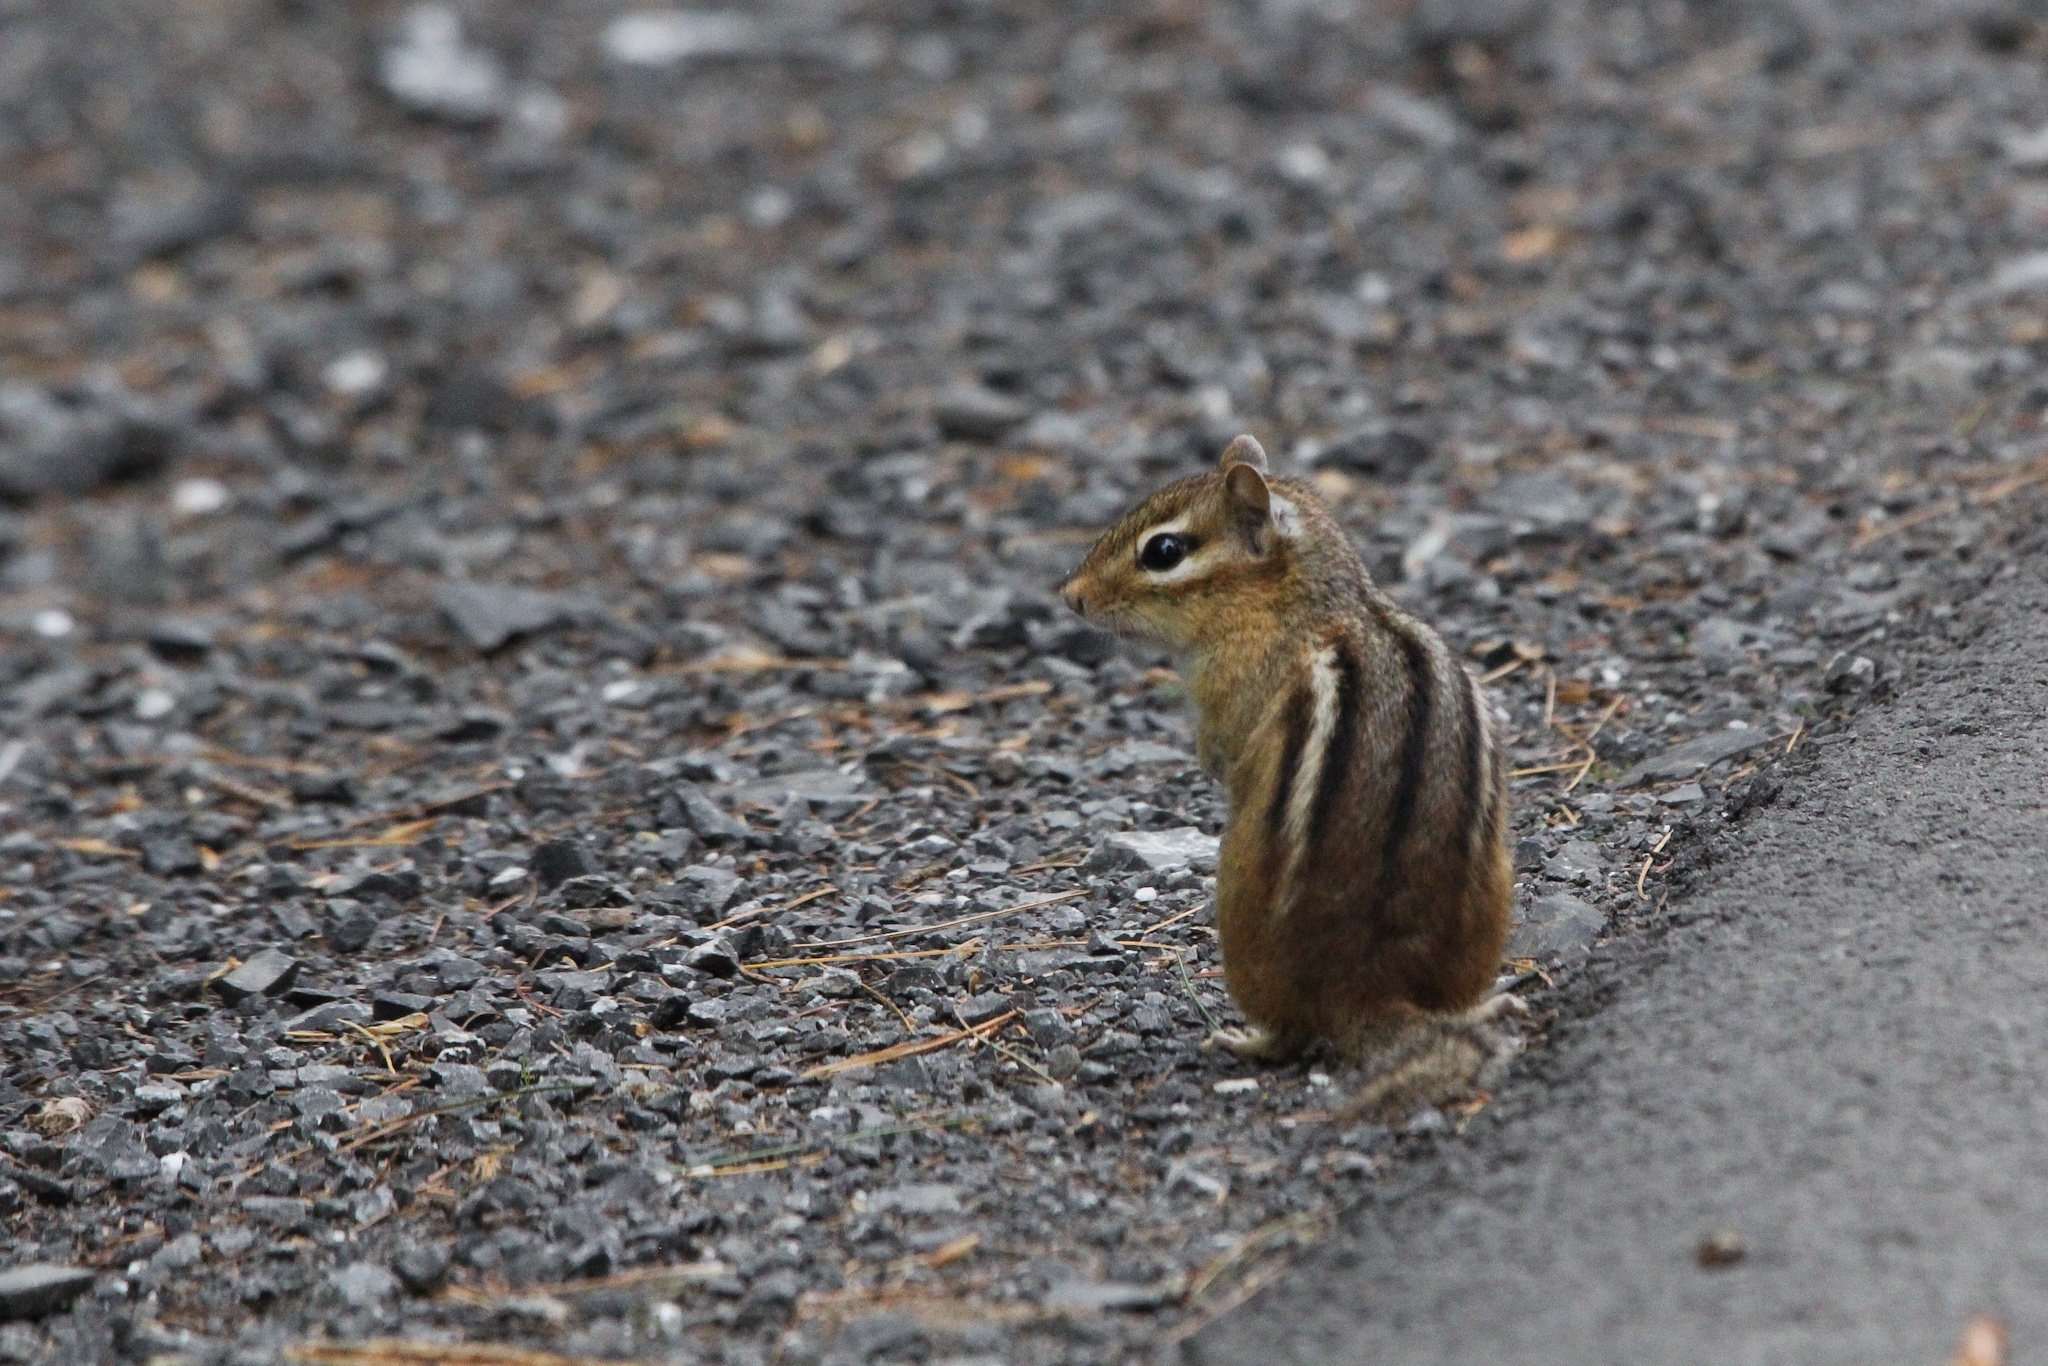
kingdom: Animalia
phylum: Chordata
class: Mammalia
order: Rodentia
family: Sciuridae
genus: Tamias
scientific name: Tamias striatus
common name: Eastern chipmunk
